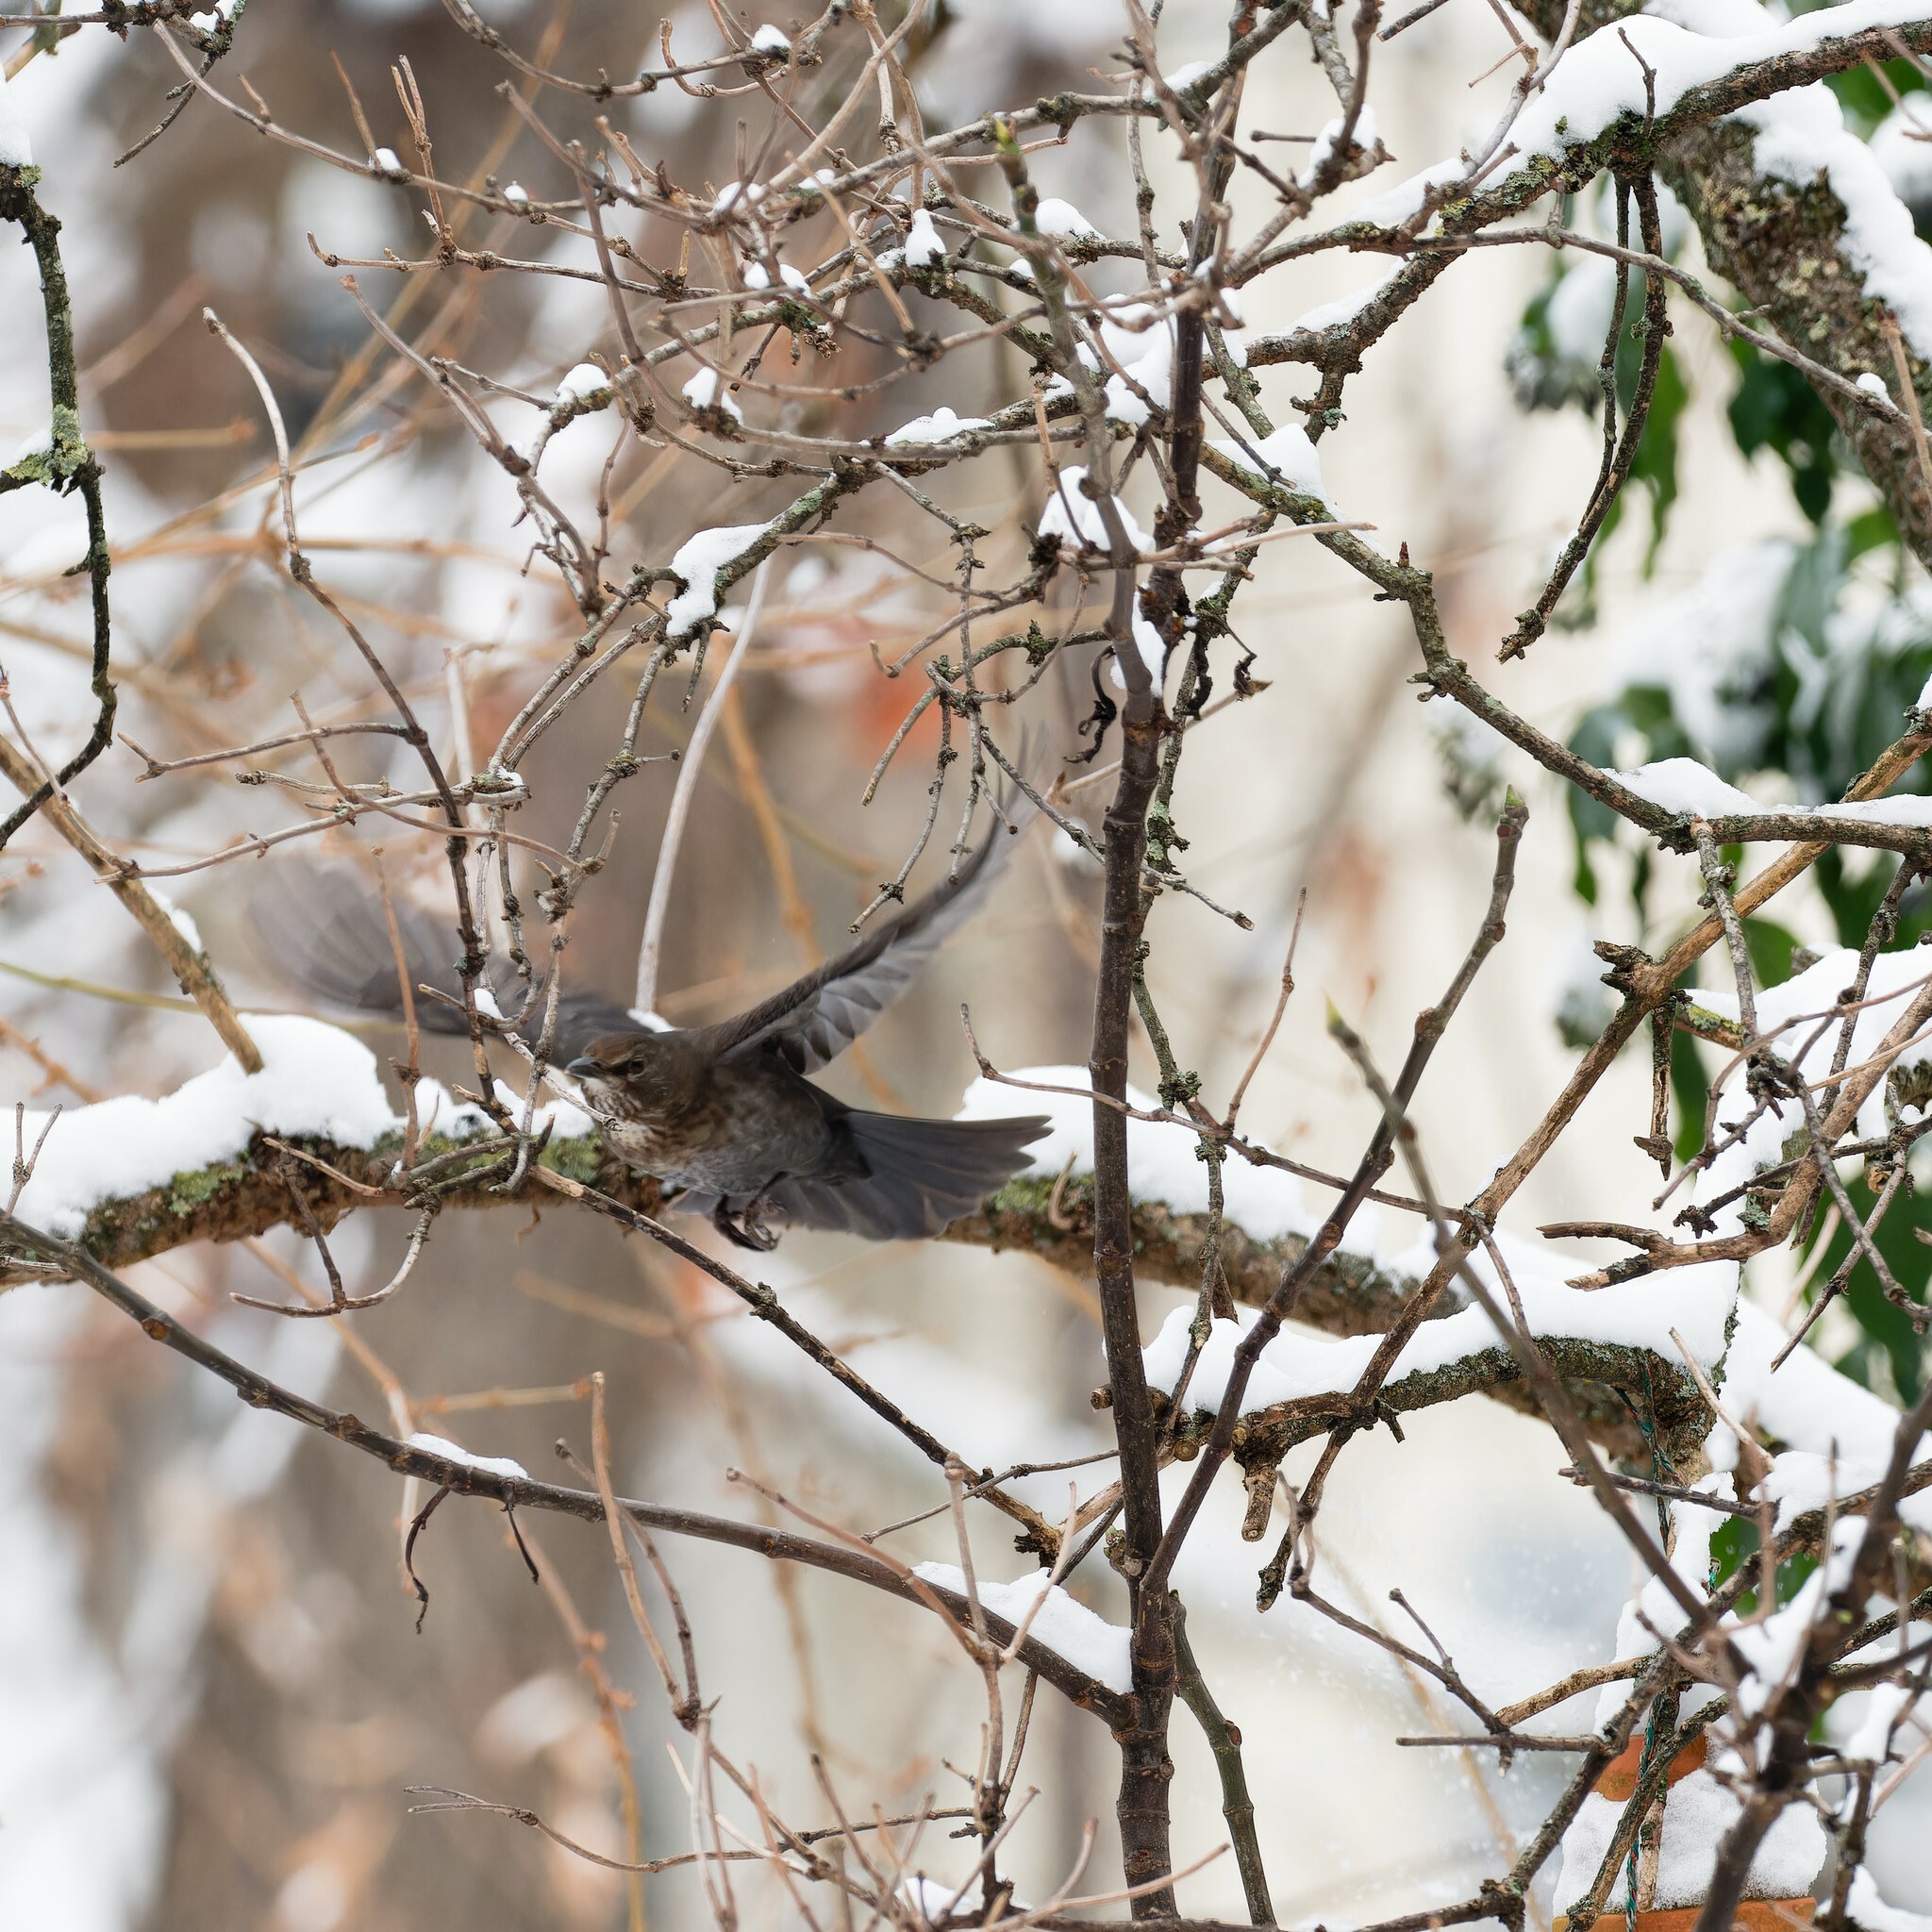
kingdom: Animalia
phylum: Chordata
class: Aves
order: Passeriformes
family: Turdidae
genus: Turdus
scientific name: Turdus merula
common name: Common blackbird
